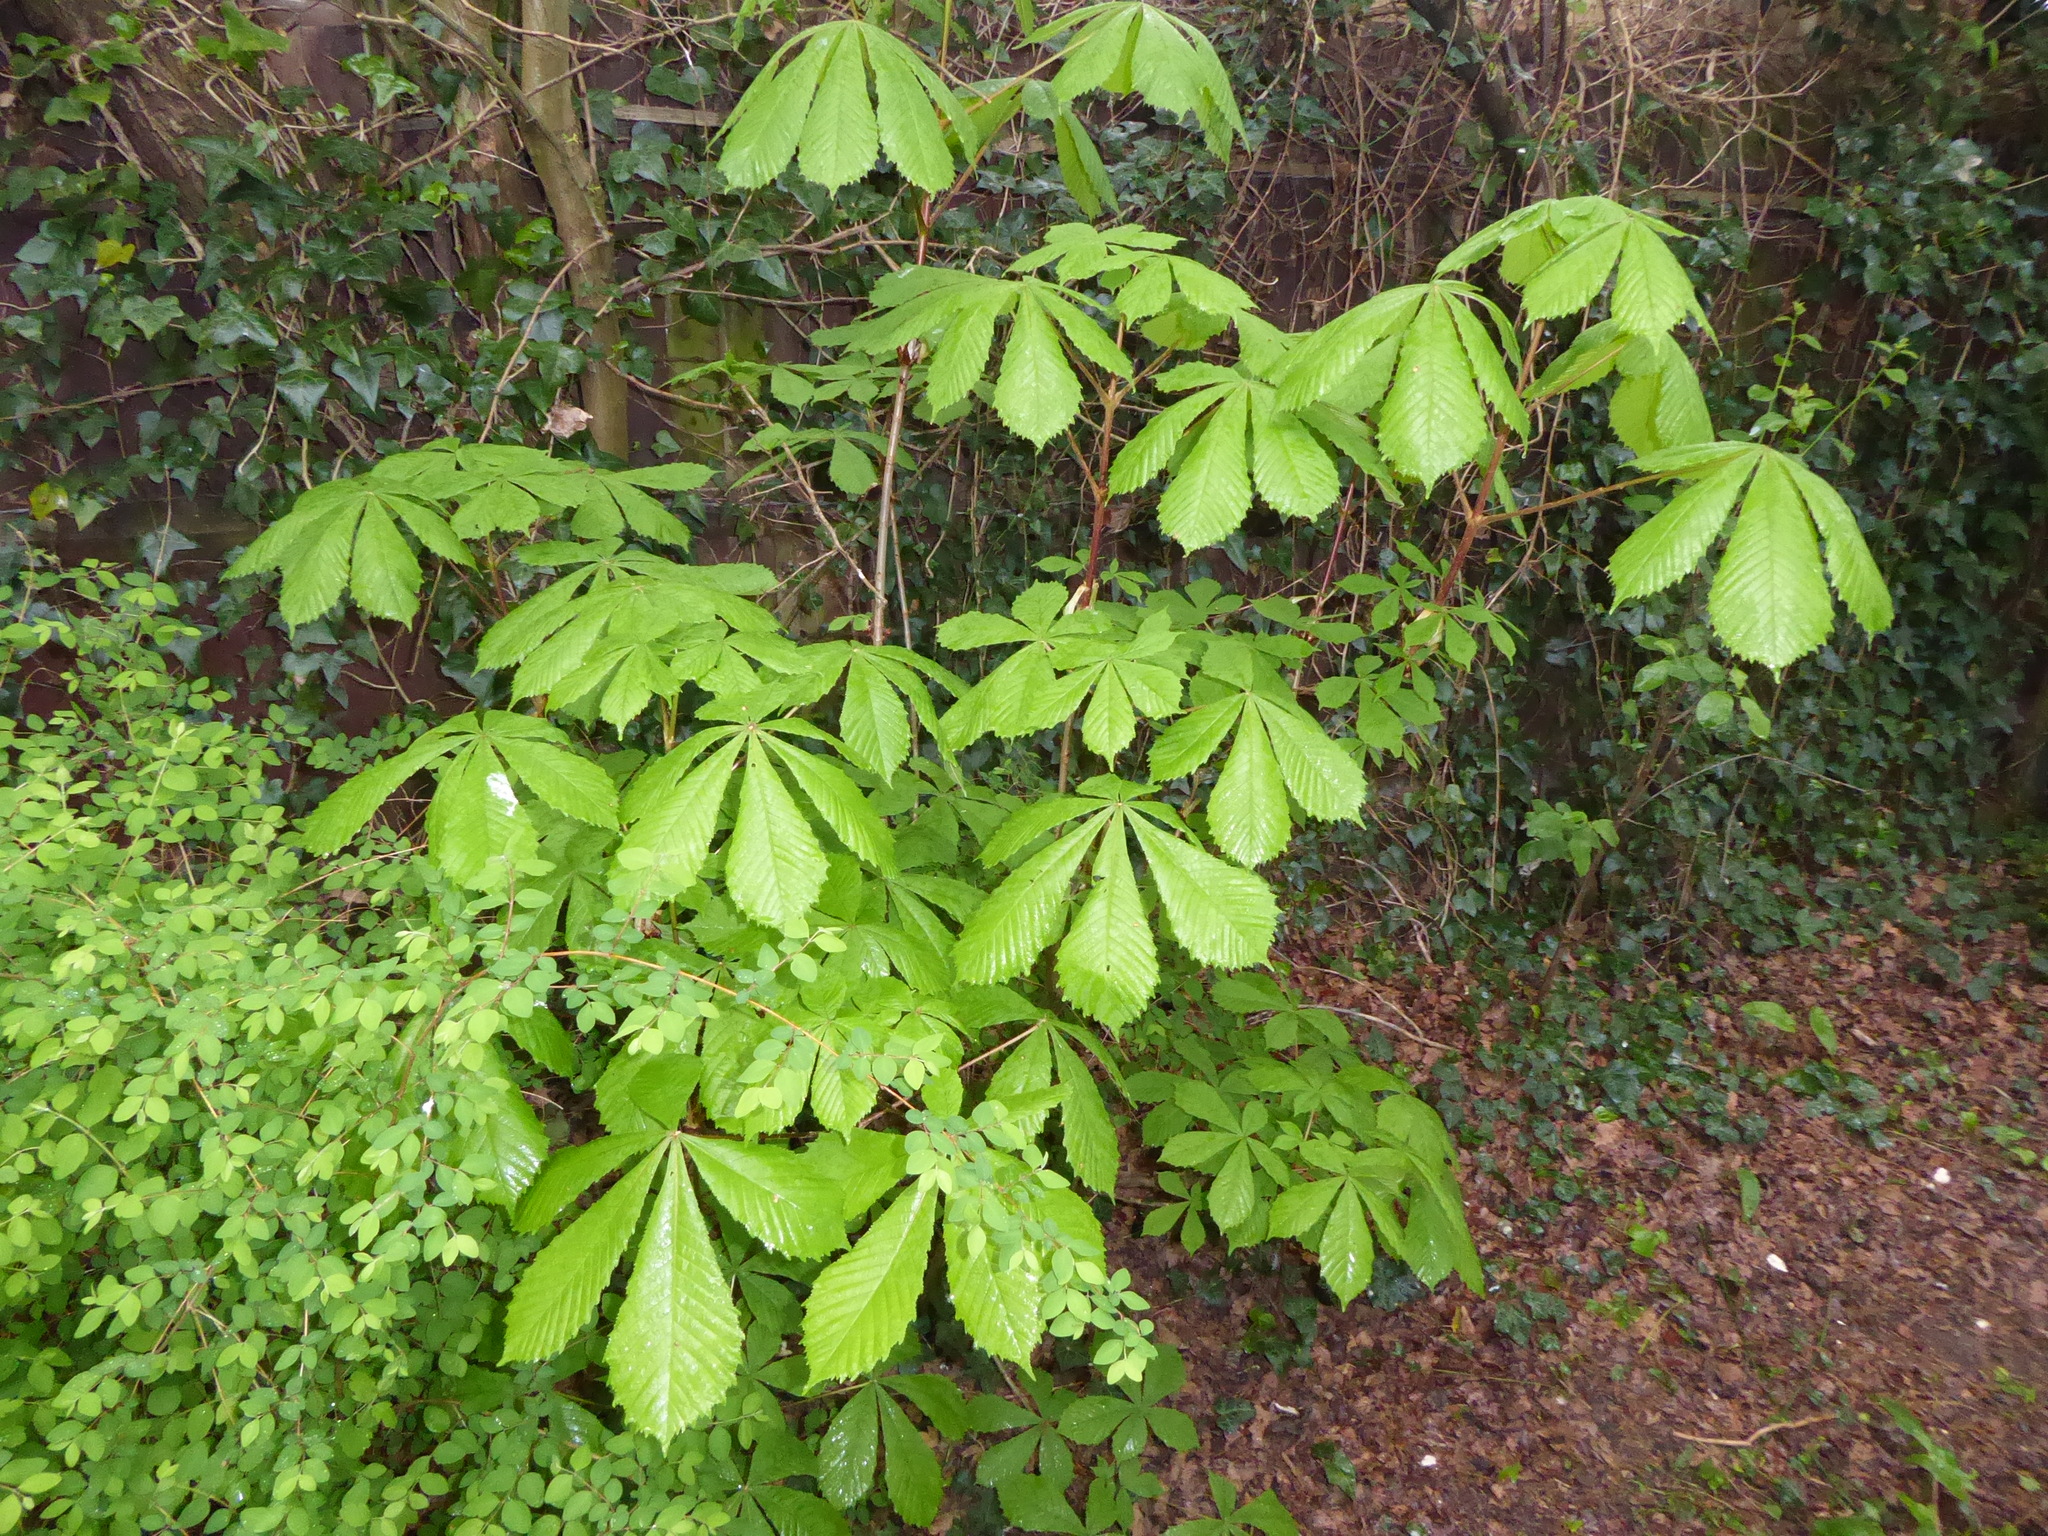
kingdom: Plantae
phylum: Tracheophyta
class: Magnoliopsida
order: Sapindales
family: Sapindaceae
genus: Aesculus
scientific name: Aesculus hippocastanum
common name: Horse-chestnut
